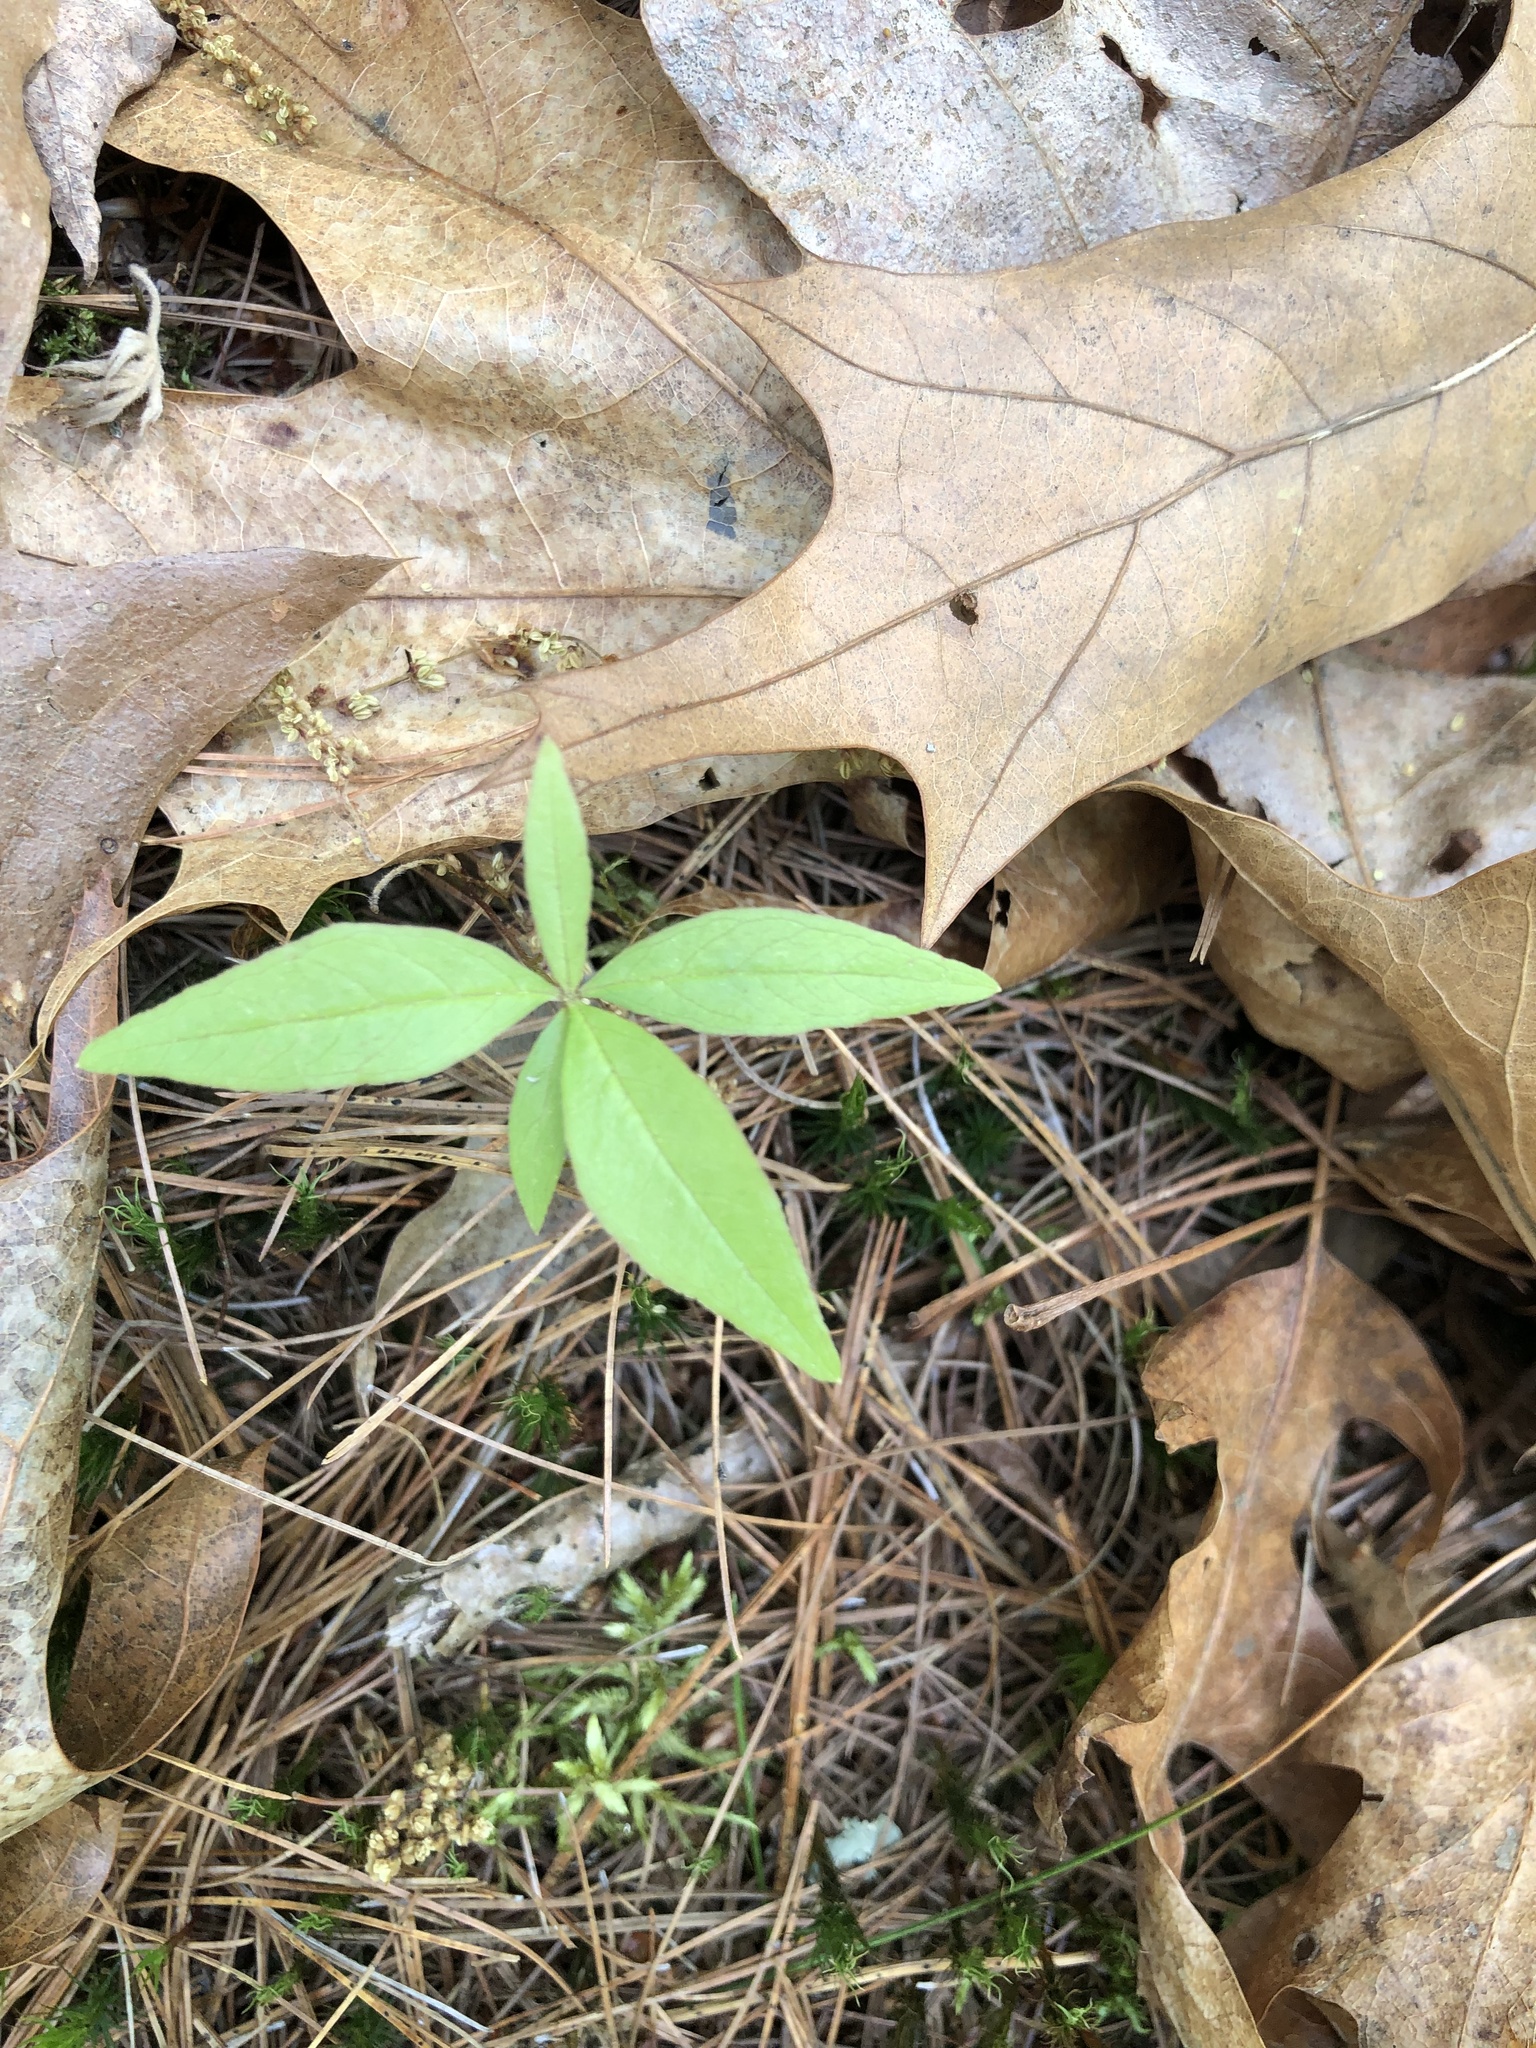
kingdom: Plantae
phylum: Tracheophyta
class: Magnoliopsida
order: Ericales
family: Primulaceae
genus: Lysimachia
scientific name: Lysimachia borealis
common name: American starflower
